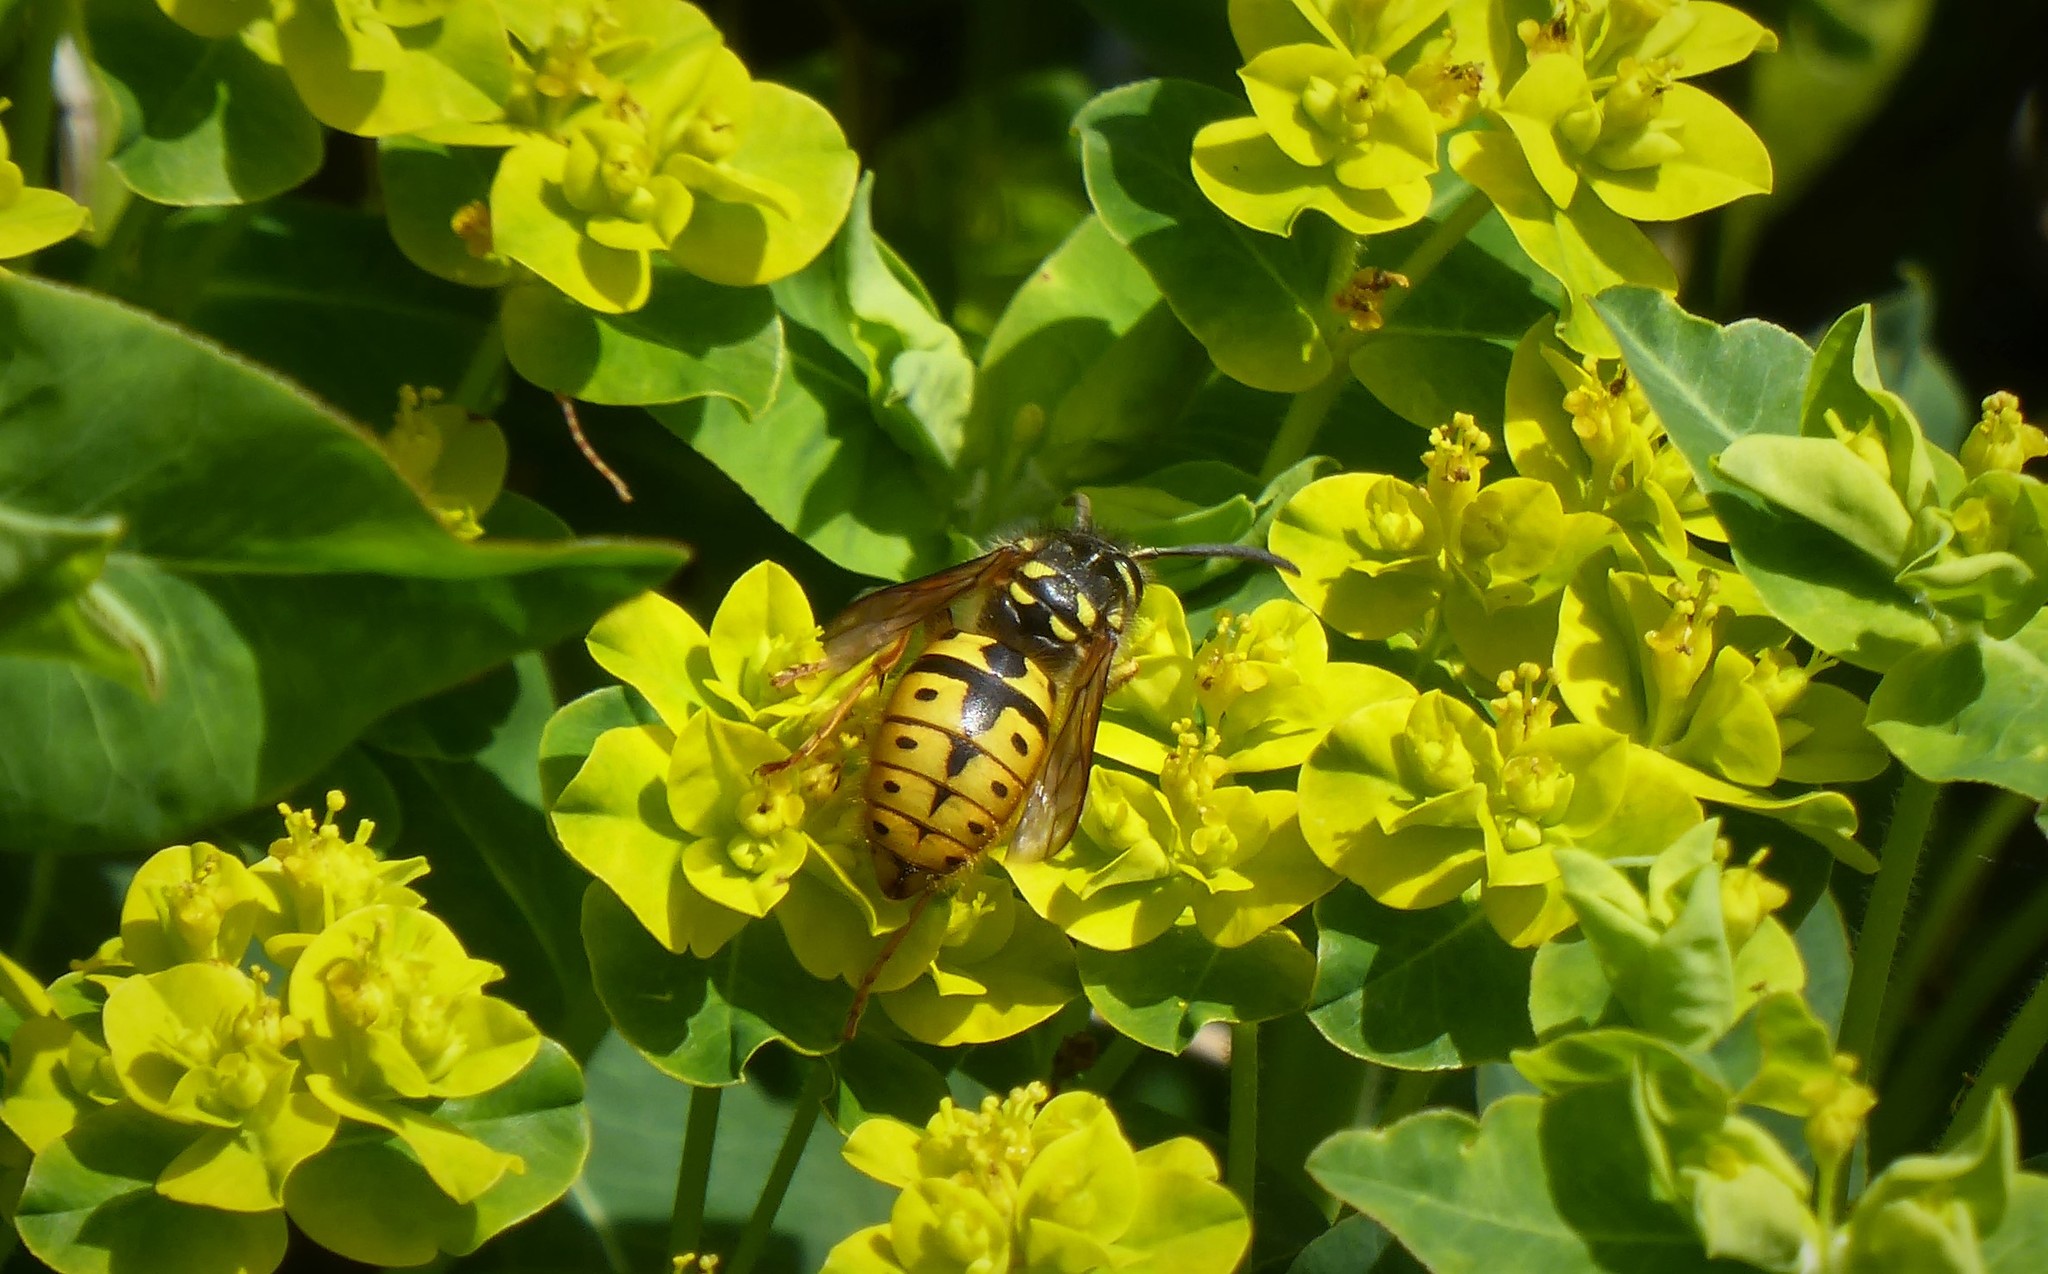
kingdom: Animalia
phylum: Arthropoda
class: Insecta
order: Hymenoptera
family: Vespidae
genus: Vespula
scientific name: Vespula germanica
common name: German wasp
